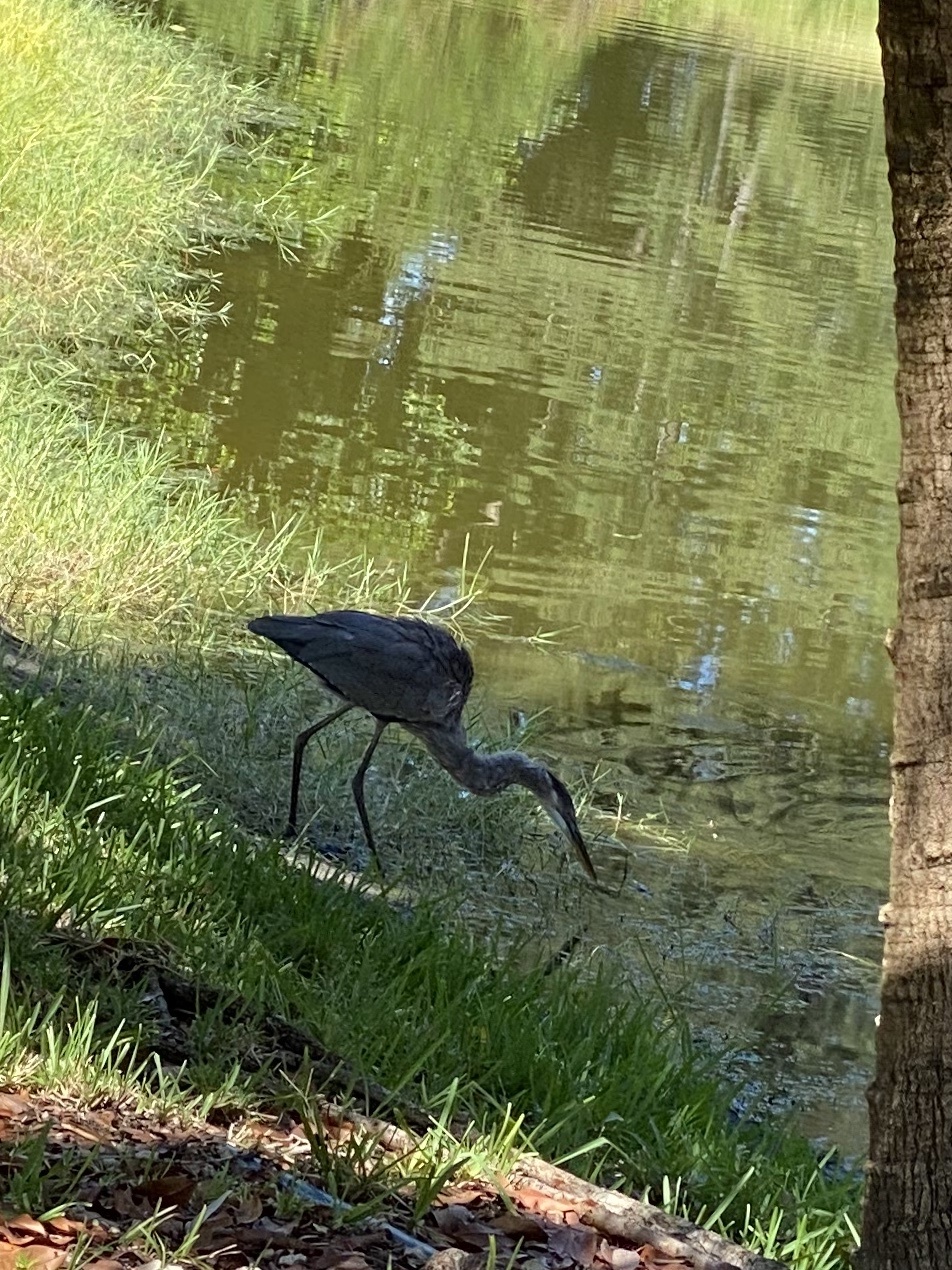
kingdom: Animalia
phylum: Chordata
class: Aves
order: Pelecaniformes
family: Ardeidae
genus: Ardea
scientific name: Ardea herodias
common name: Great blue heron
